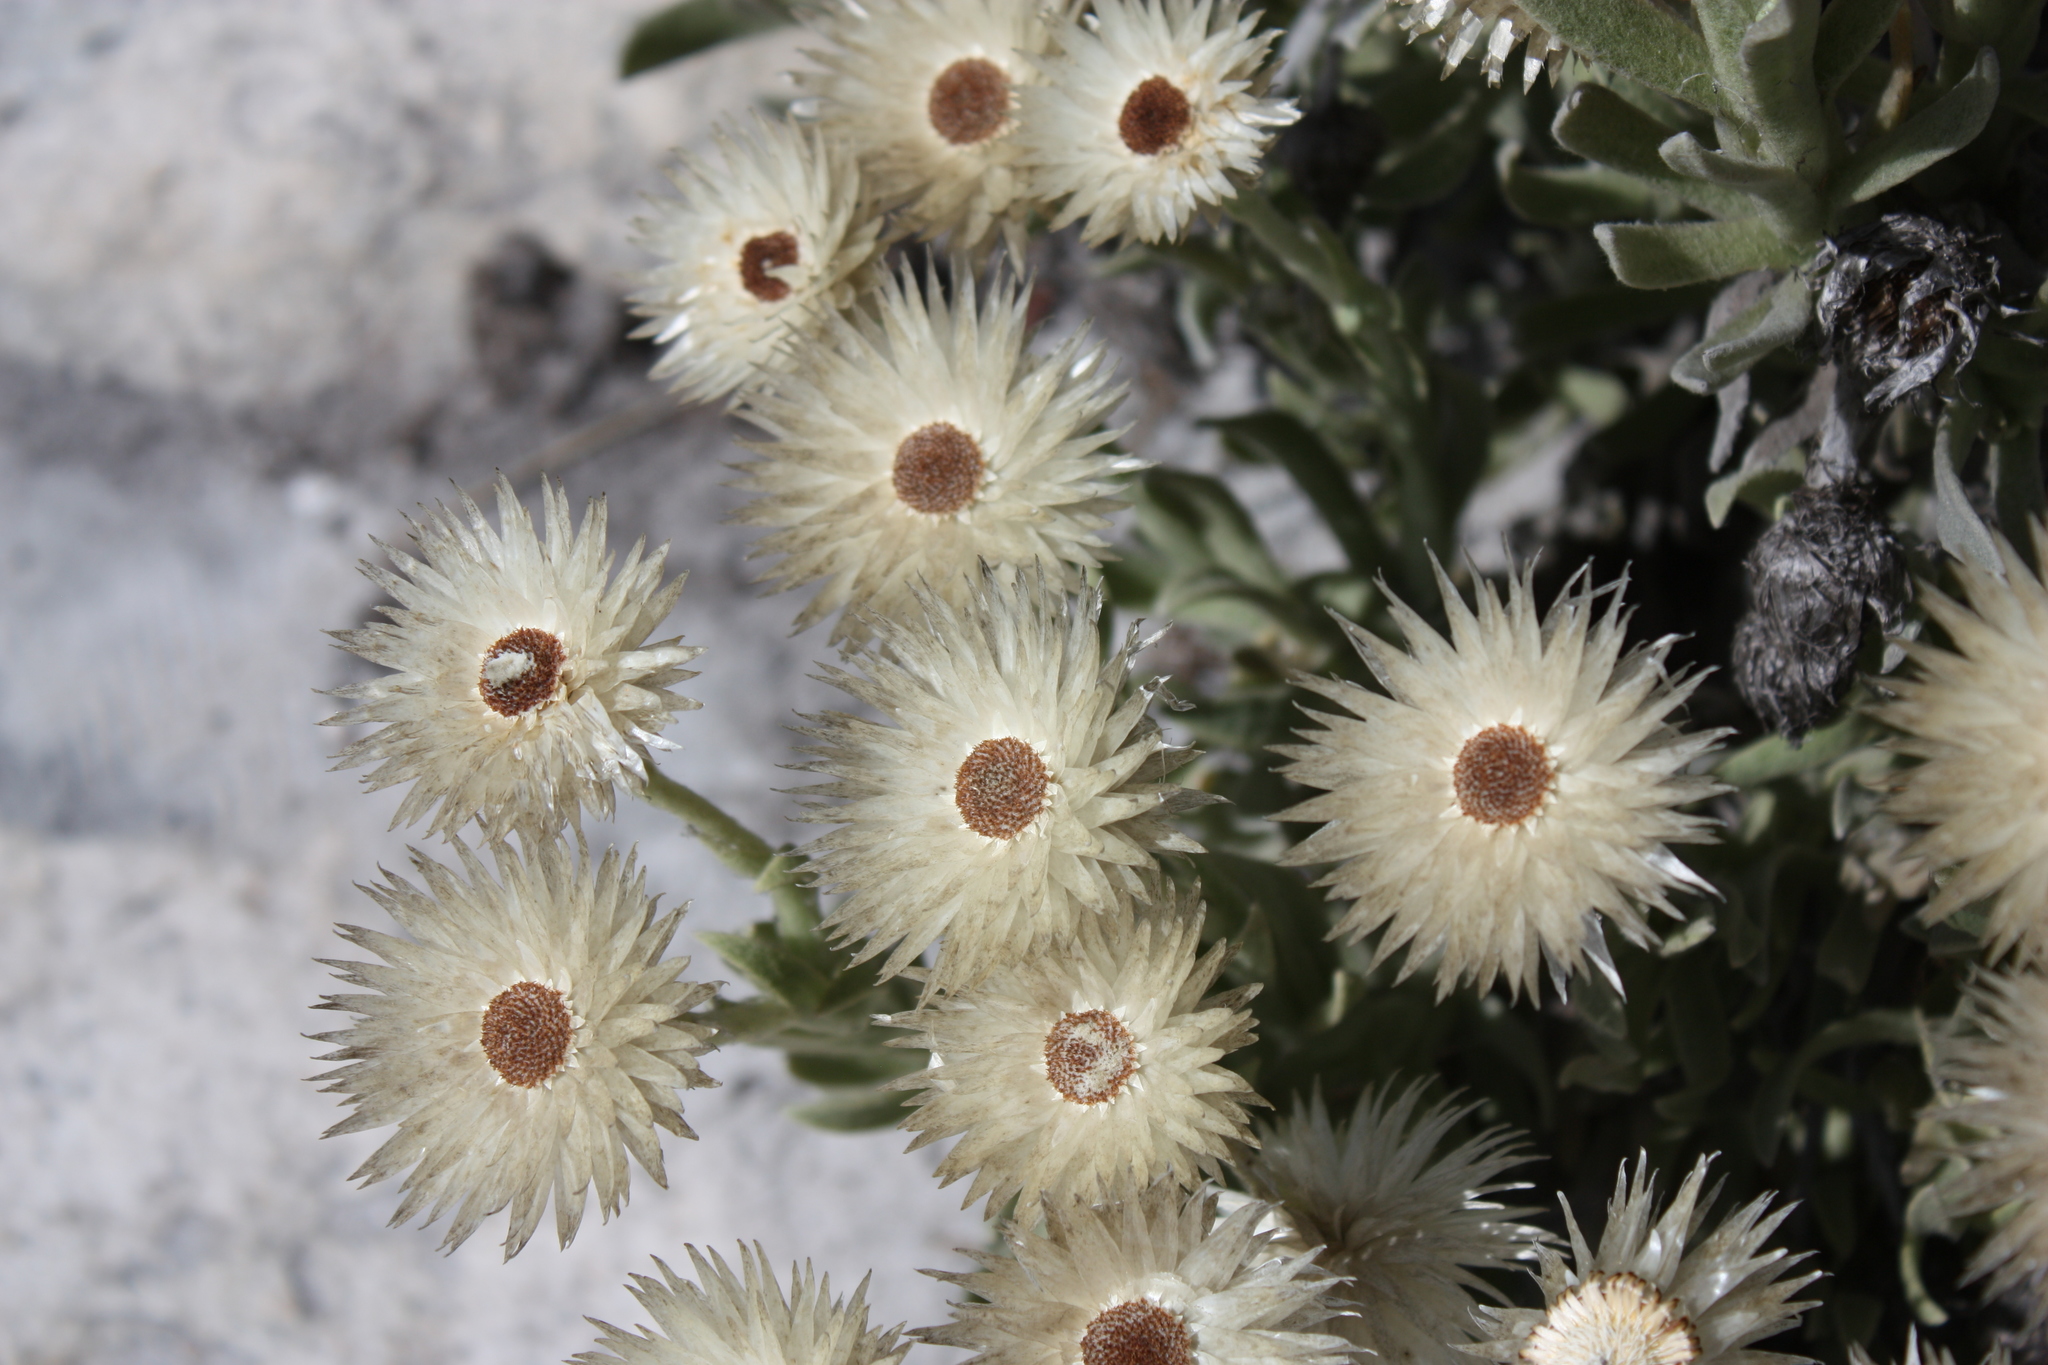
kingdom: Plantae
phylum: Tracheophyta
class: Magnoliopsida
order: Asterales
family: Asteraceae
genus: Syncarpha
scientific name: Syncarpha vestita
